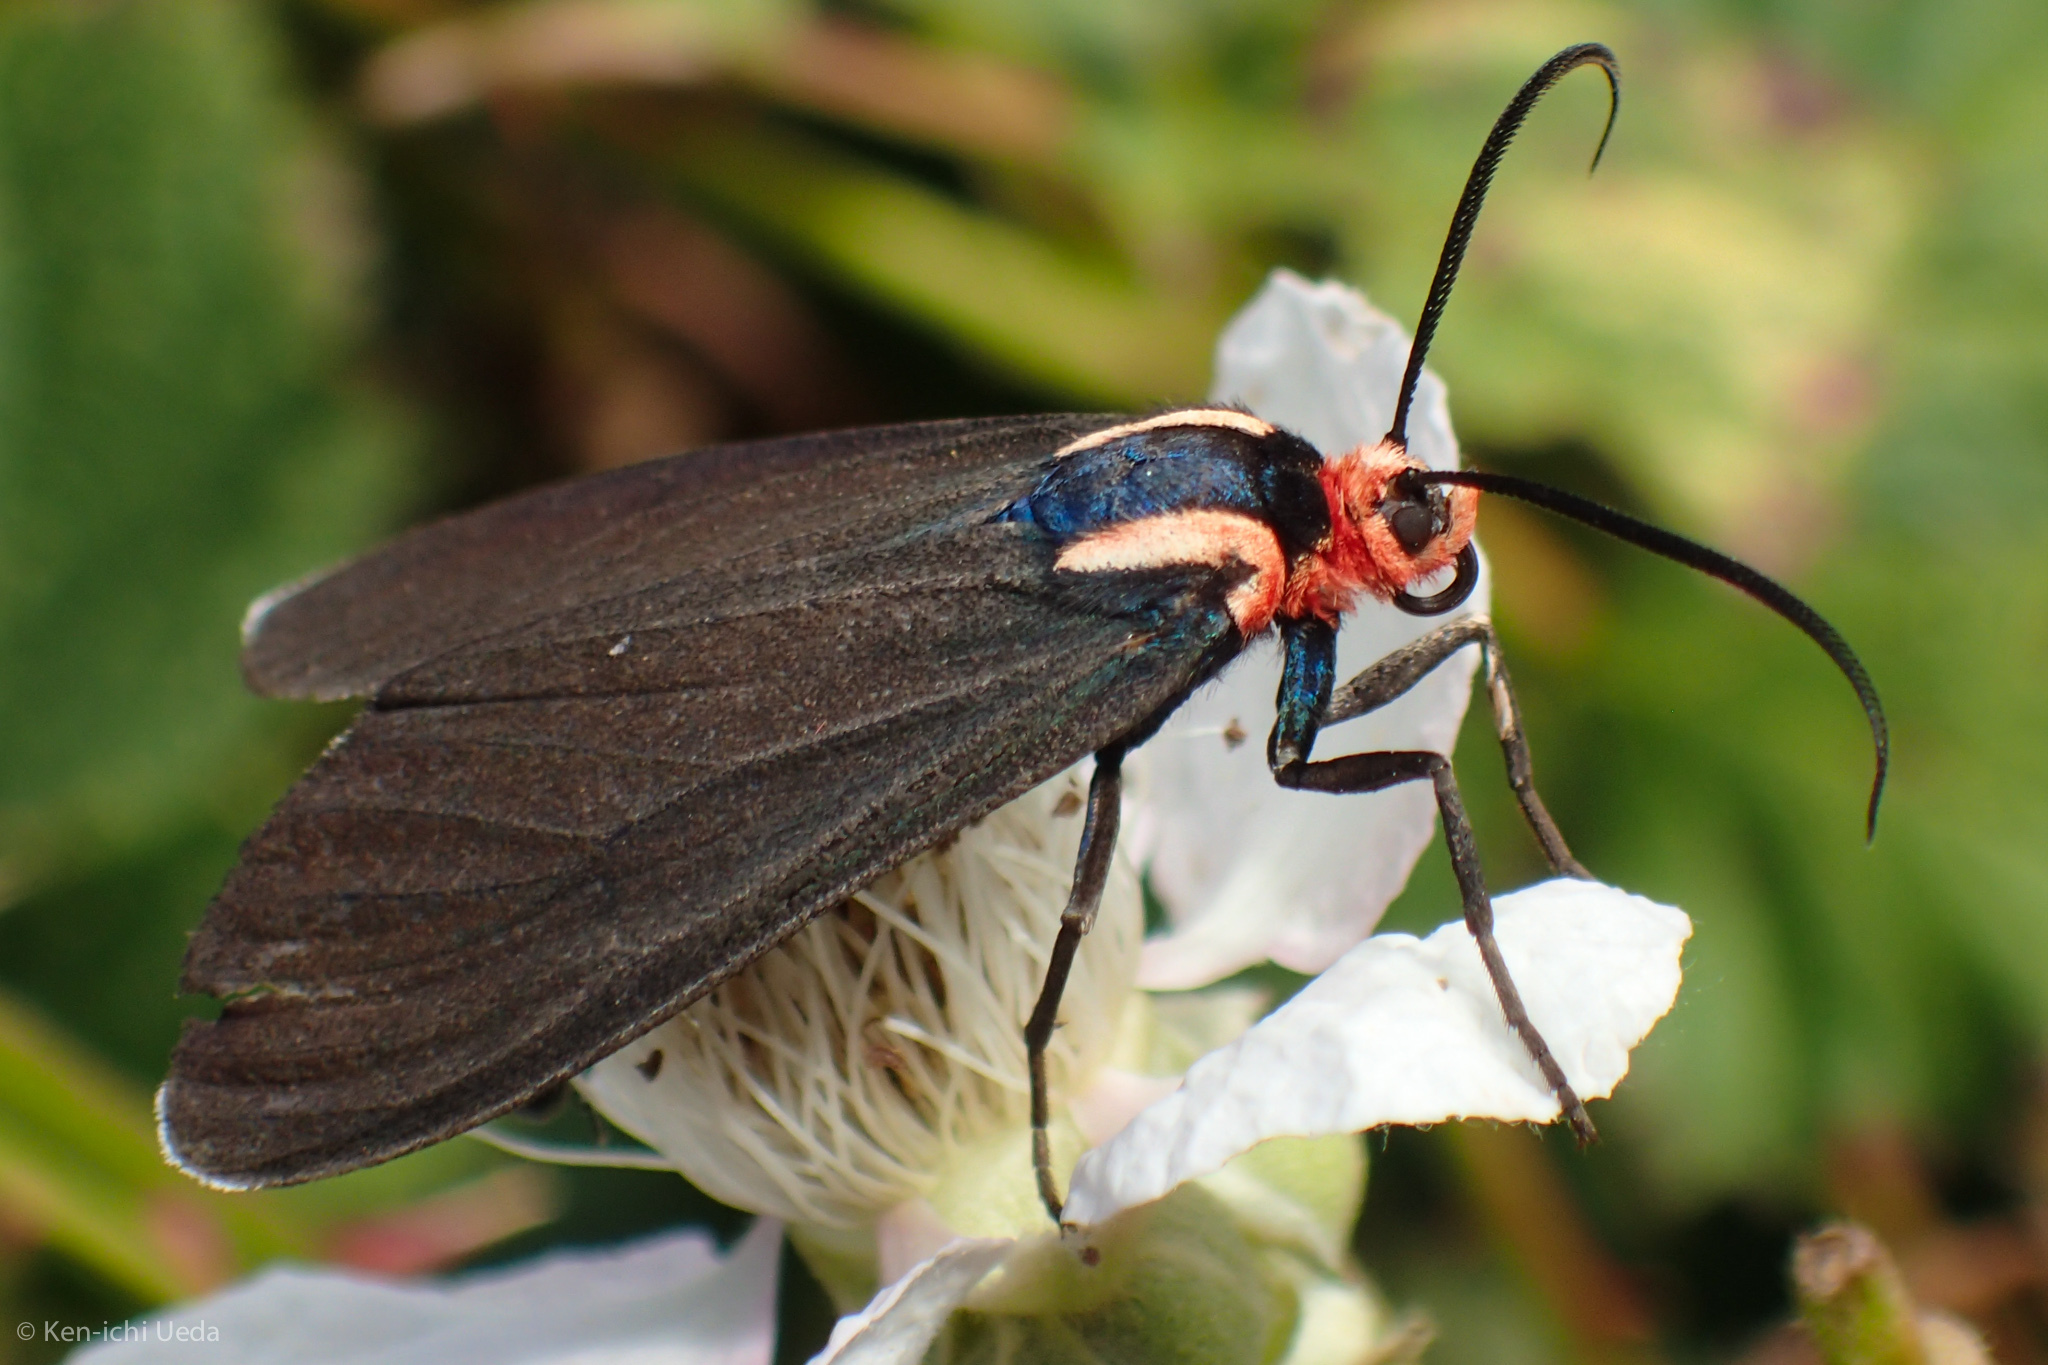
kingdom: Animalia
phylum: Arthropoda
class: Insecta
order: Lepidoptera
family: Erebidae
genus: Ctenucha
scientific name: Ctenucha rubroscapus
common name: Red-shouldered ctenucha
